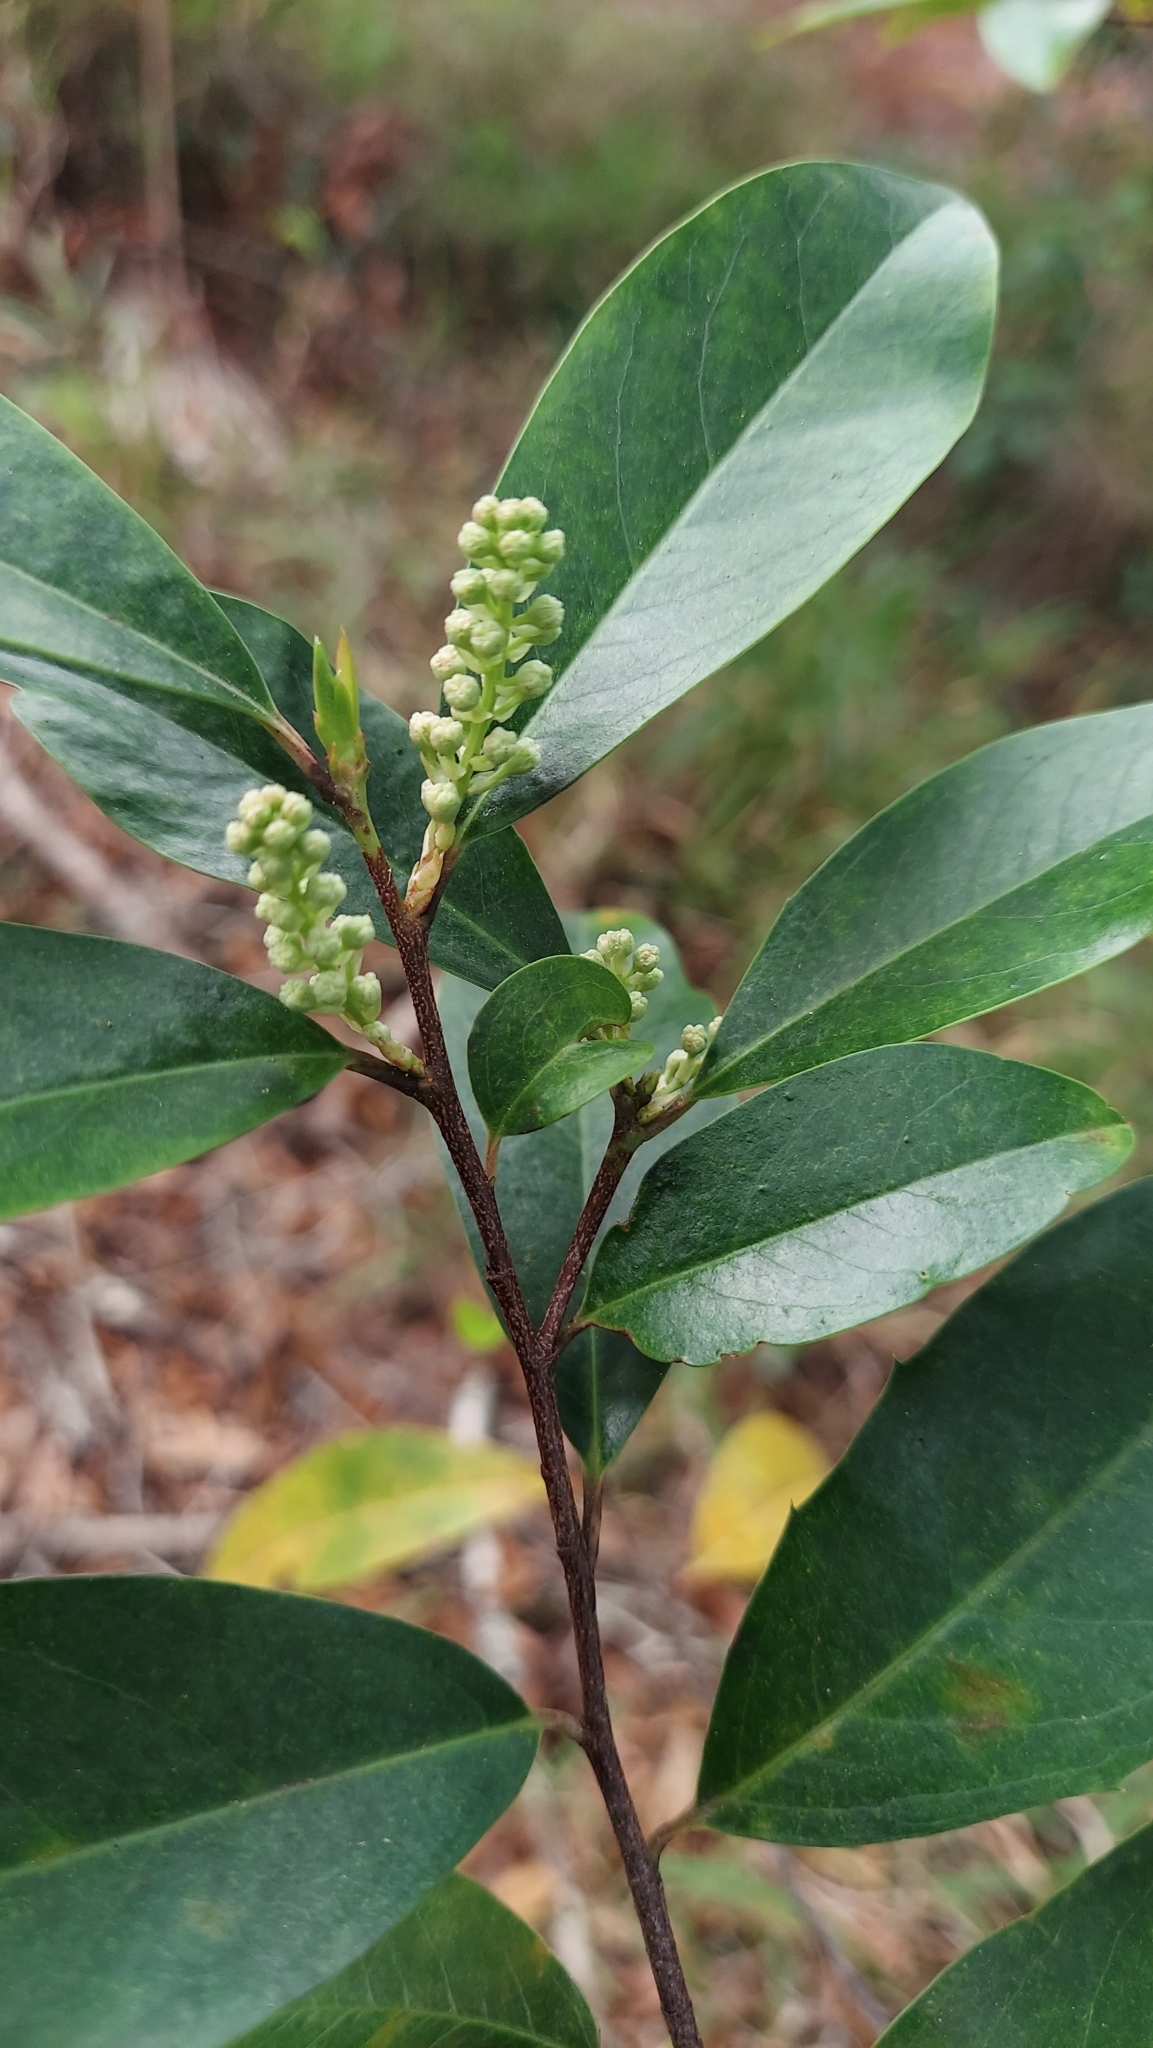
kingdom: Plantae
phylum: Tracheophyta
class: Magnoliopsida
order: Rosales
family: Rosaceae
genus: Prunus
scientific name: Prunus caroliniana
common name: Carolina laurel cherry
